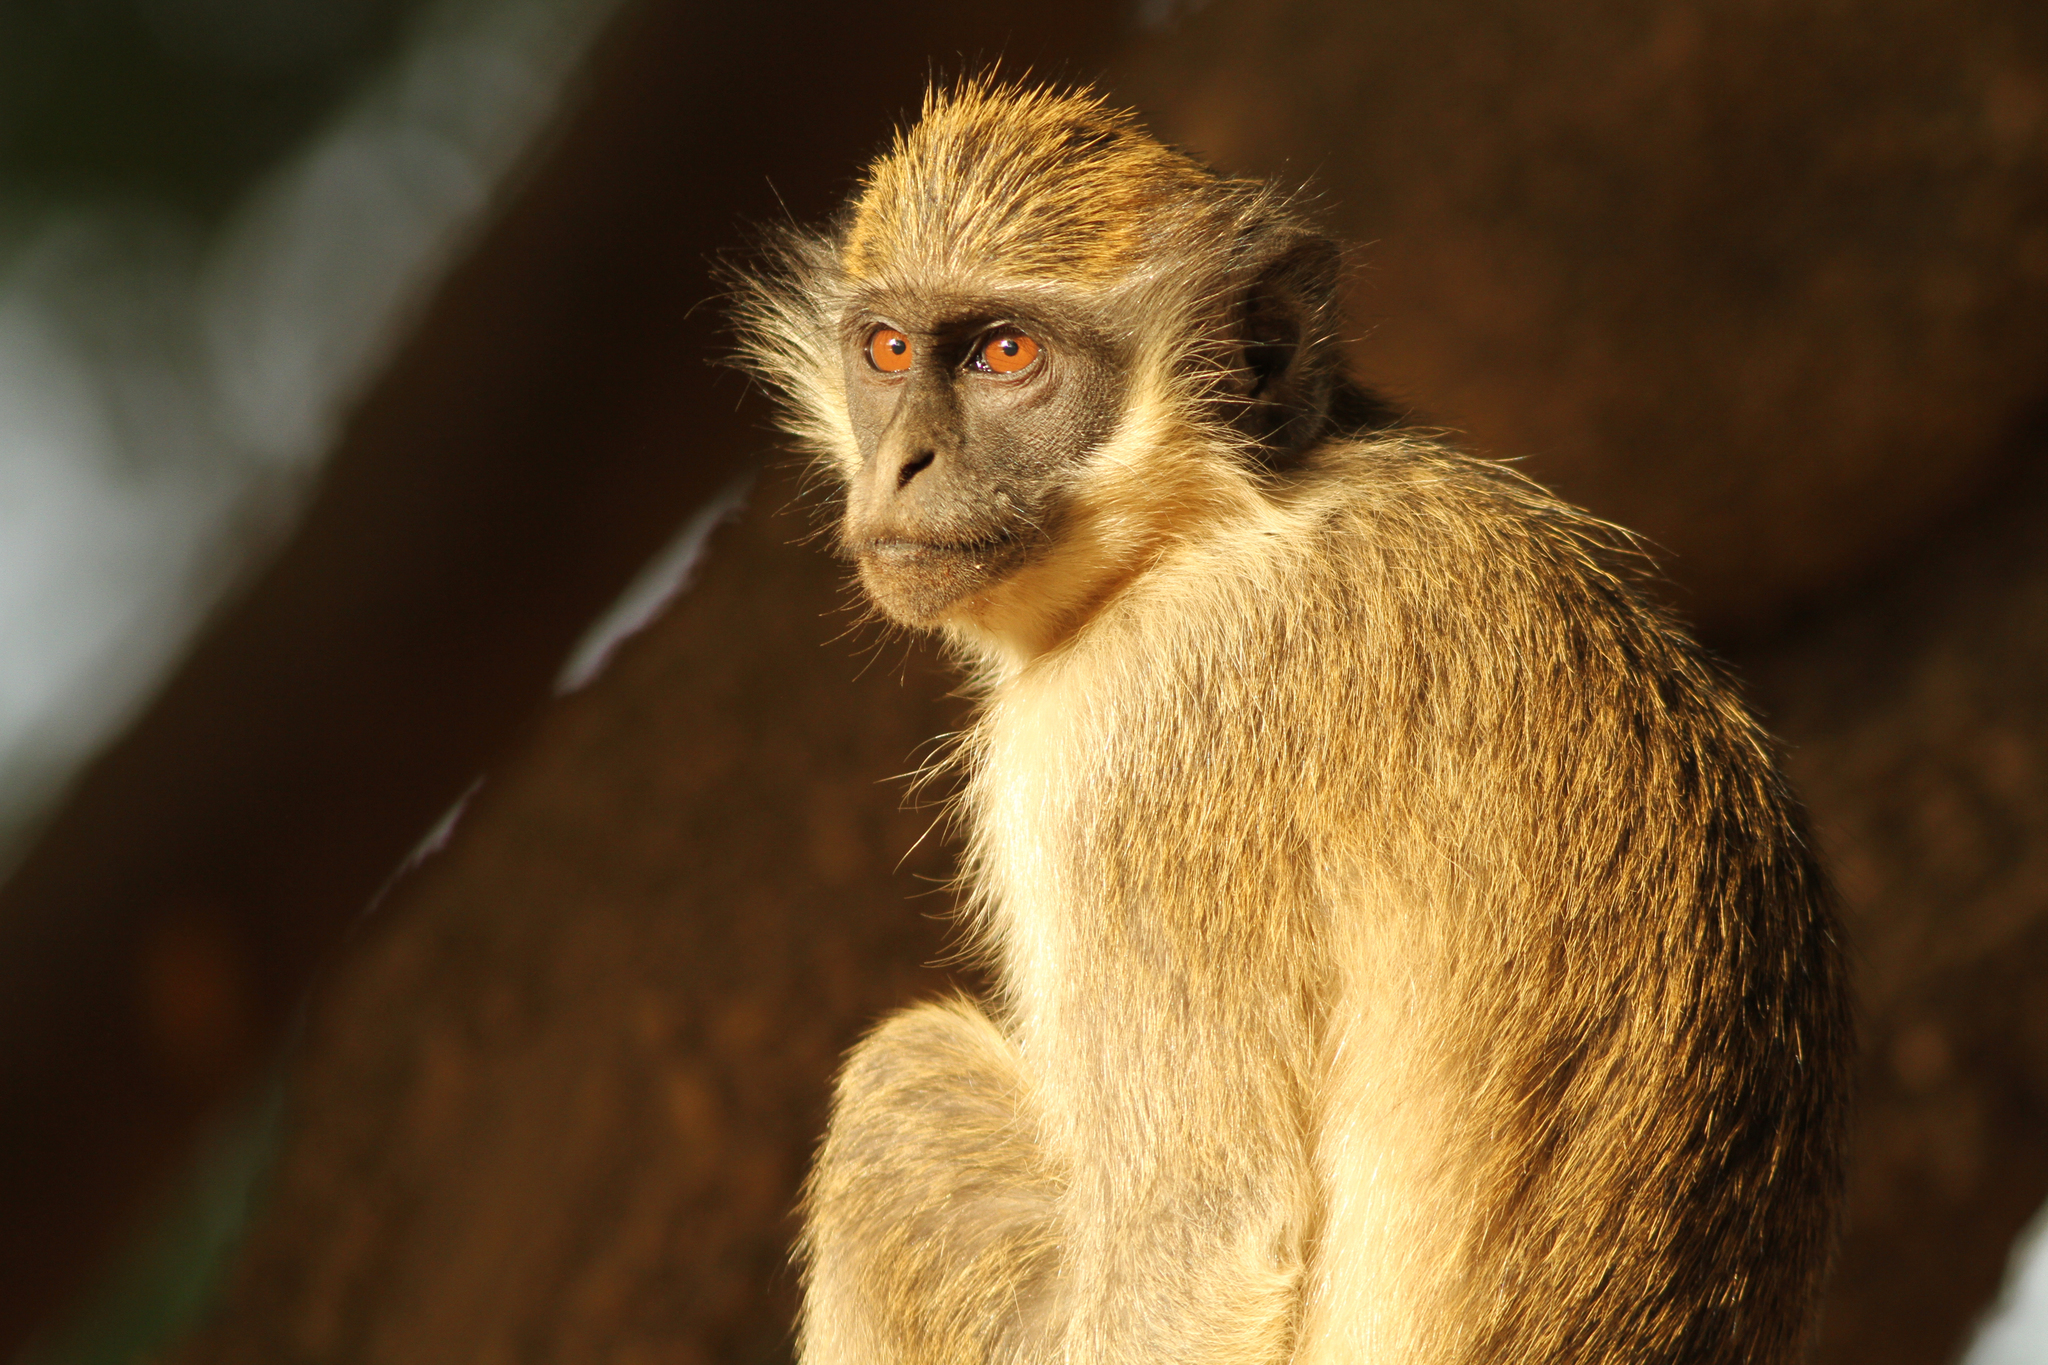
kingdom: Animalia
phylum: Chordata
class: Mammalia
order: Primates
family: Cercopithecidae
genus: Chlorocebus
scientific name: Chlorocebus sabaeus
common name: Green monkey
